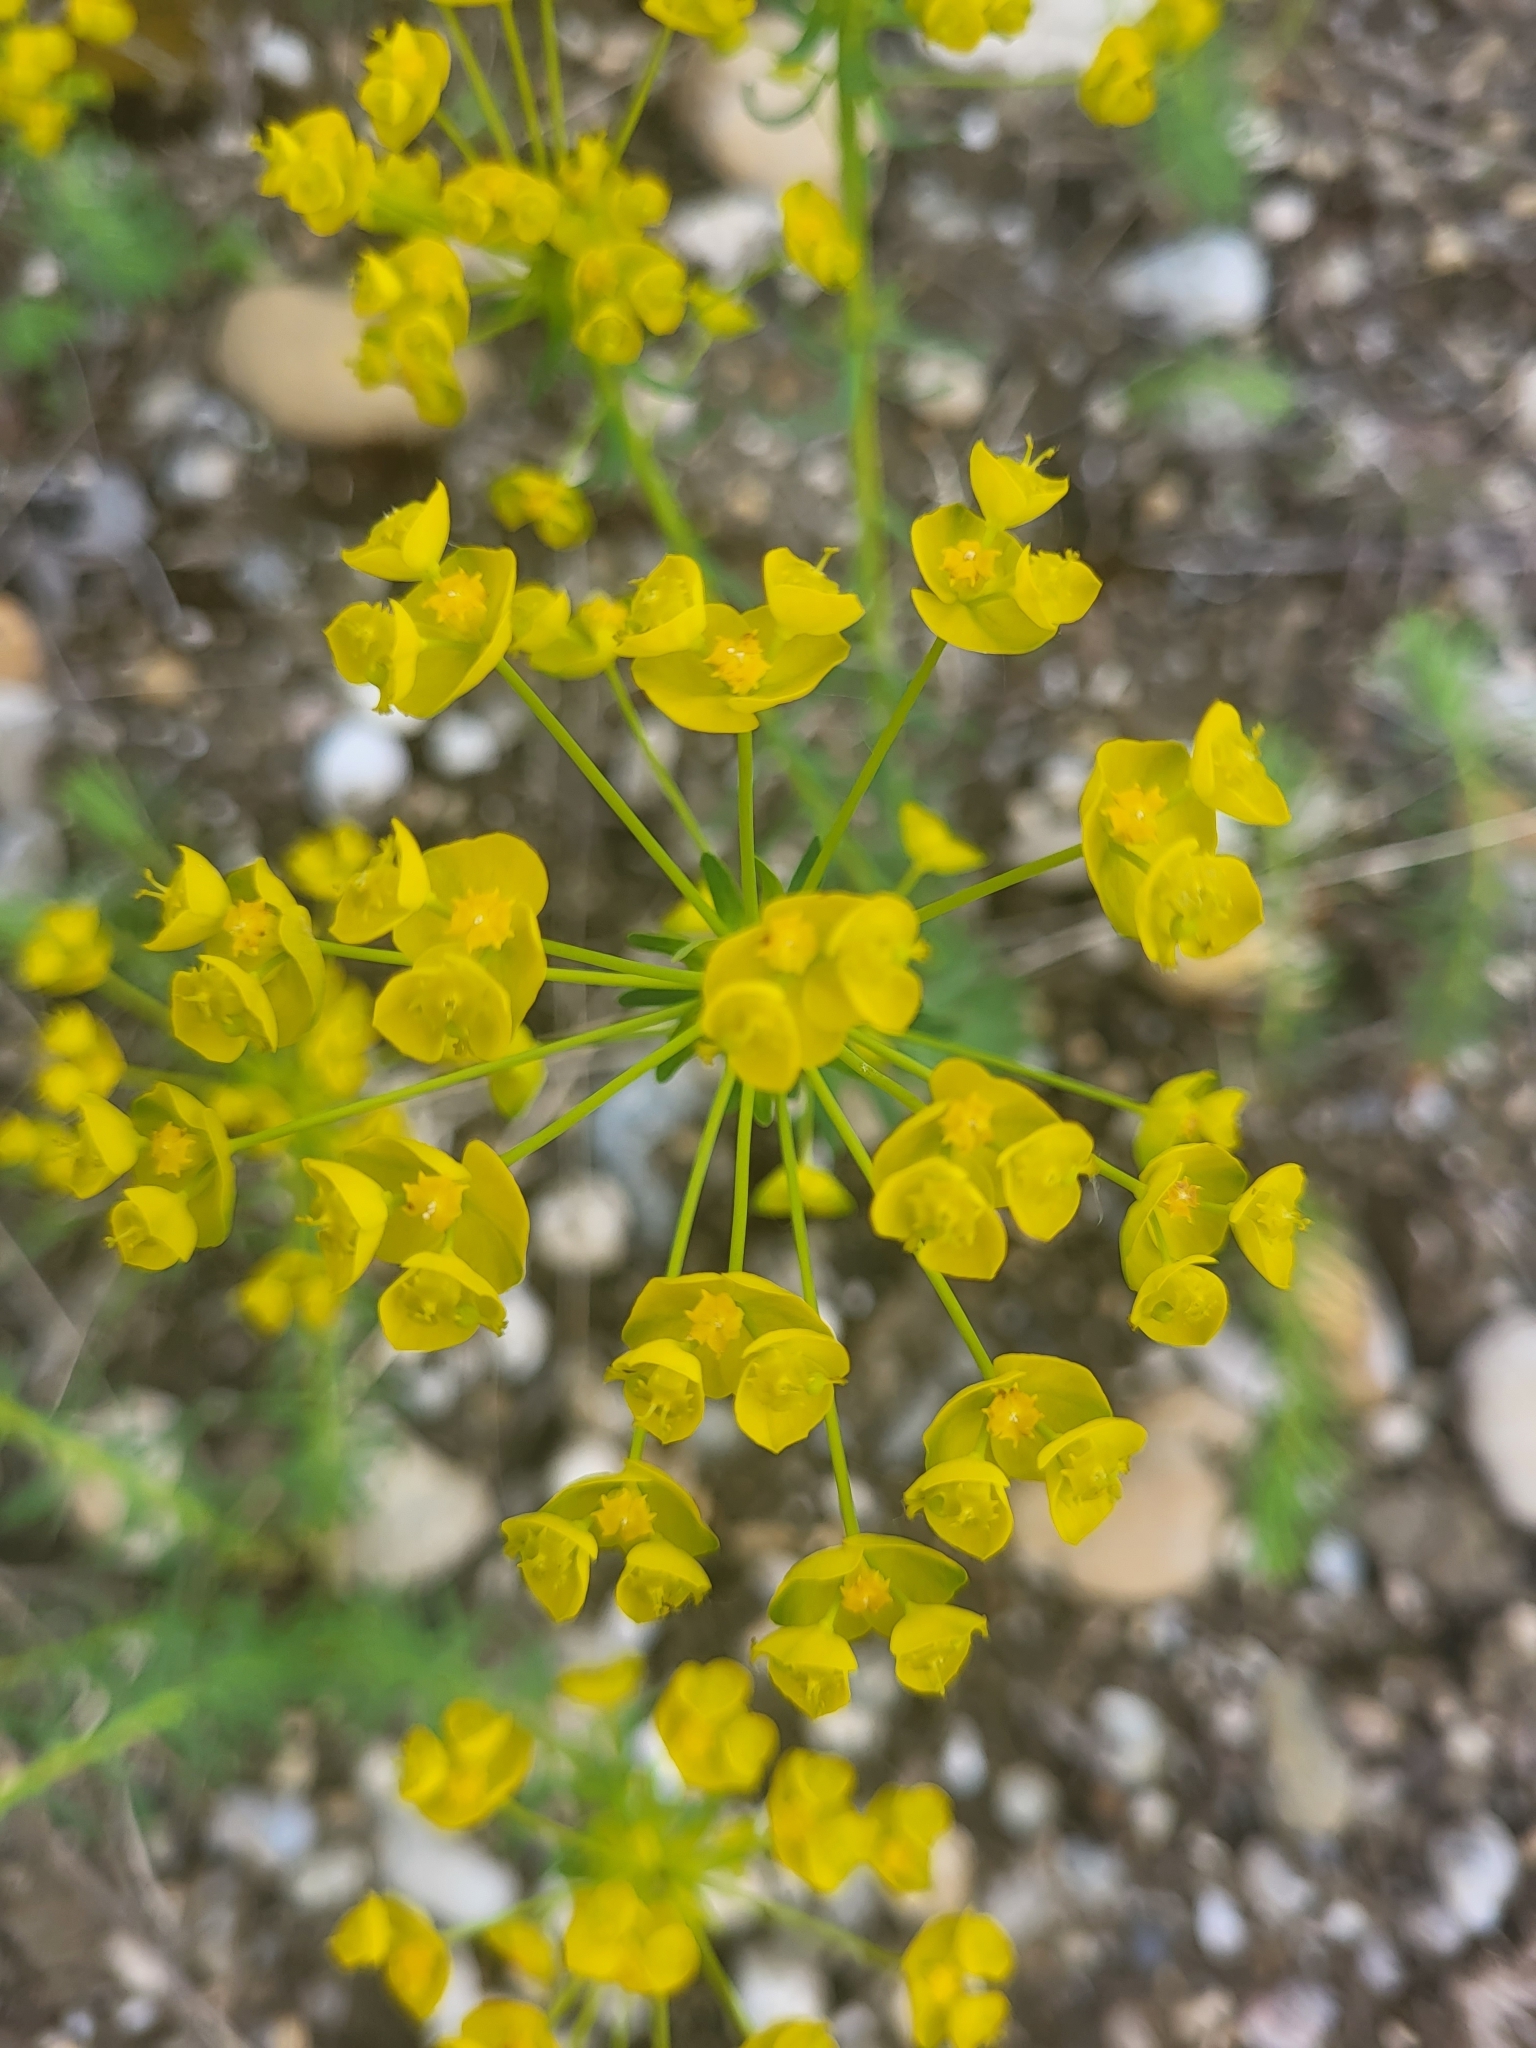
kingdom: Plantae
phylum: Tracheophyta
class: Magnoliopsida
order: Malpighiales
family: Euphorbiaceae
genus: Euphorbia
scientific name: Euphorbia cyparissias
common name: Cypress spurge
